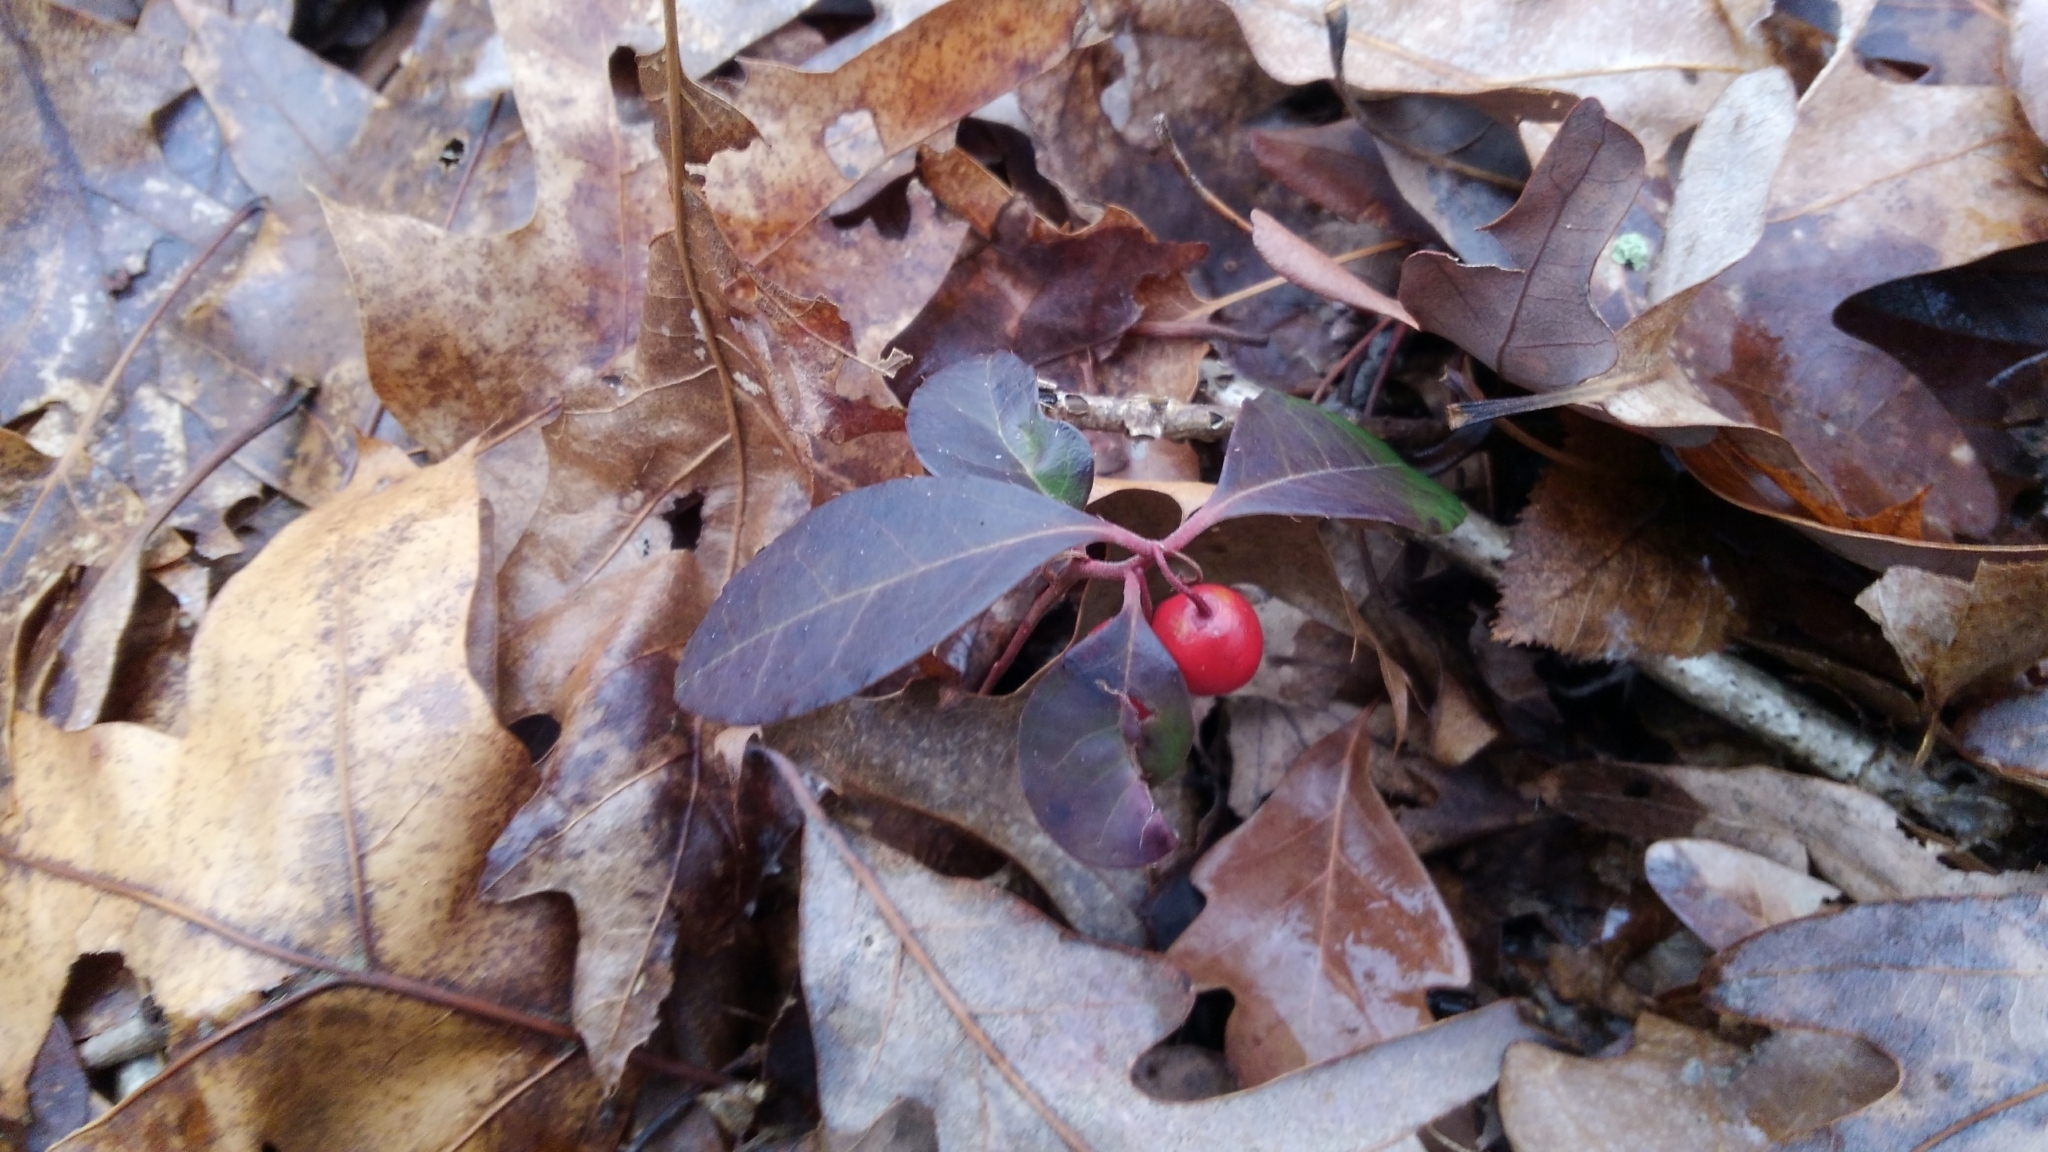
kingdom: Plantae
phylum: Tracheophyta
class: Magnoliopsida
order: Ericales
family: Ericaceae
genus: Gaultheria
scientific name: Gaultheria procumbens
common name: Checkerberry
